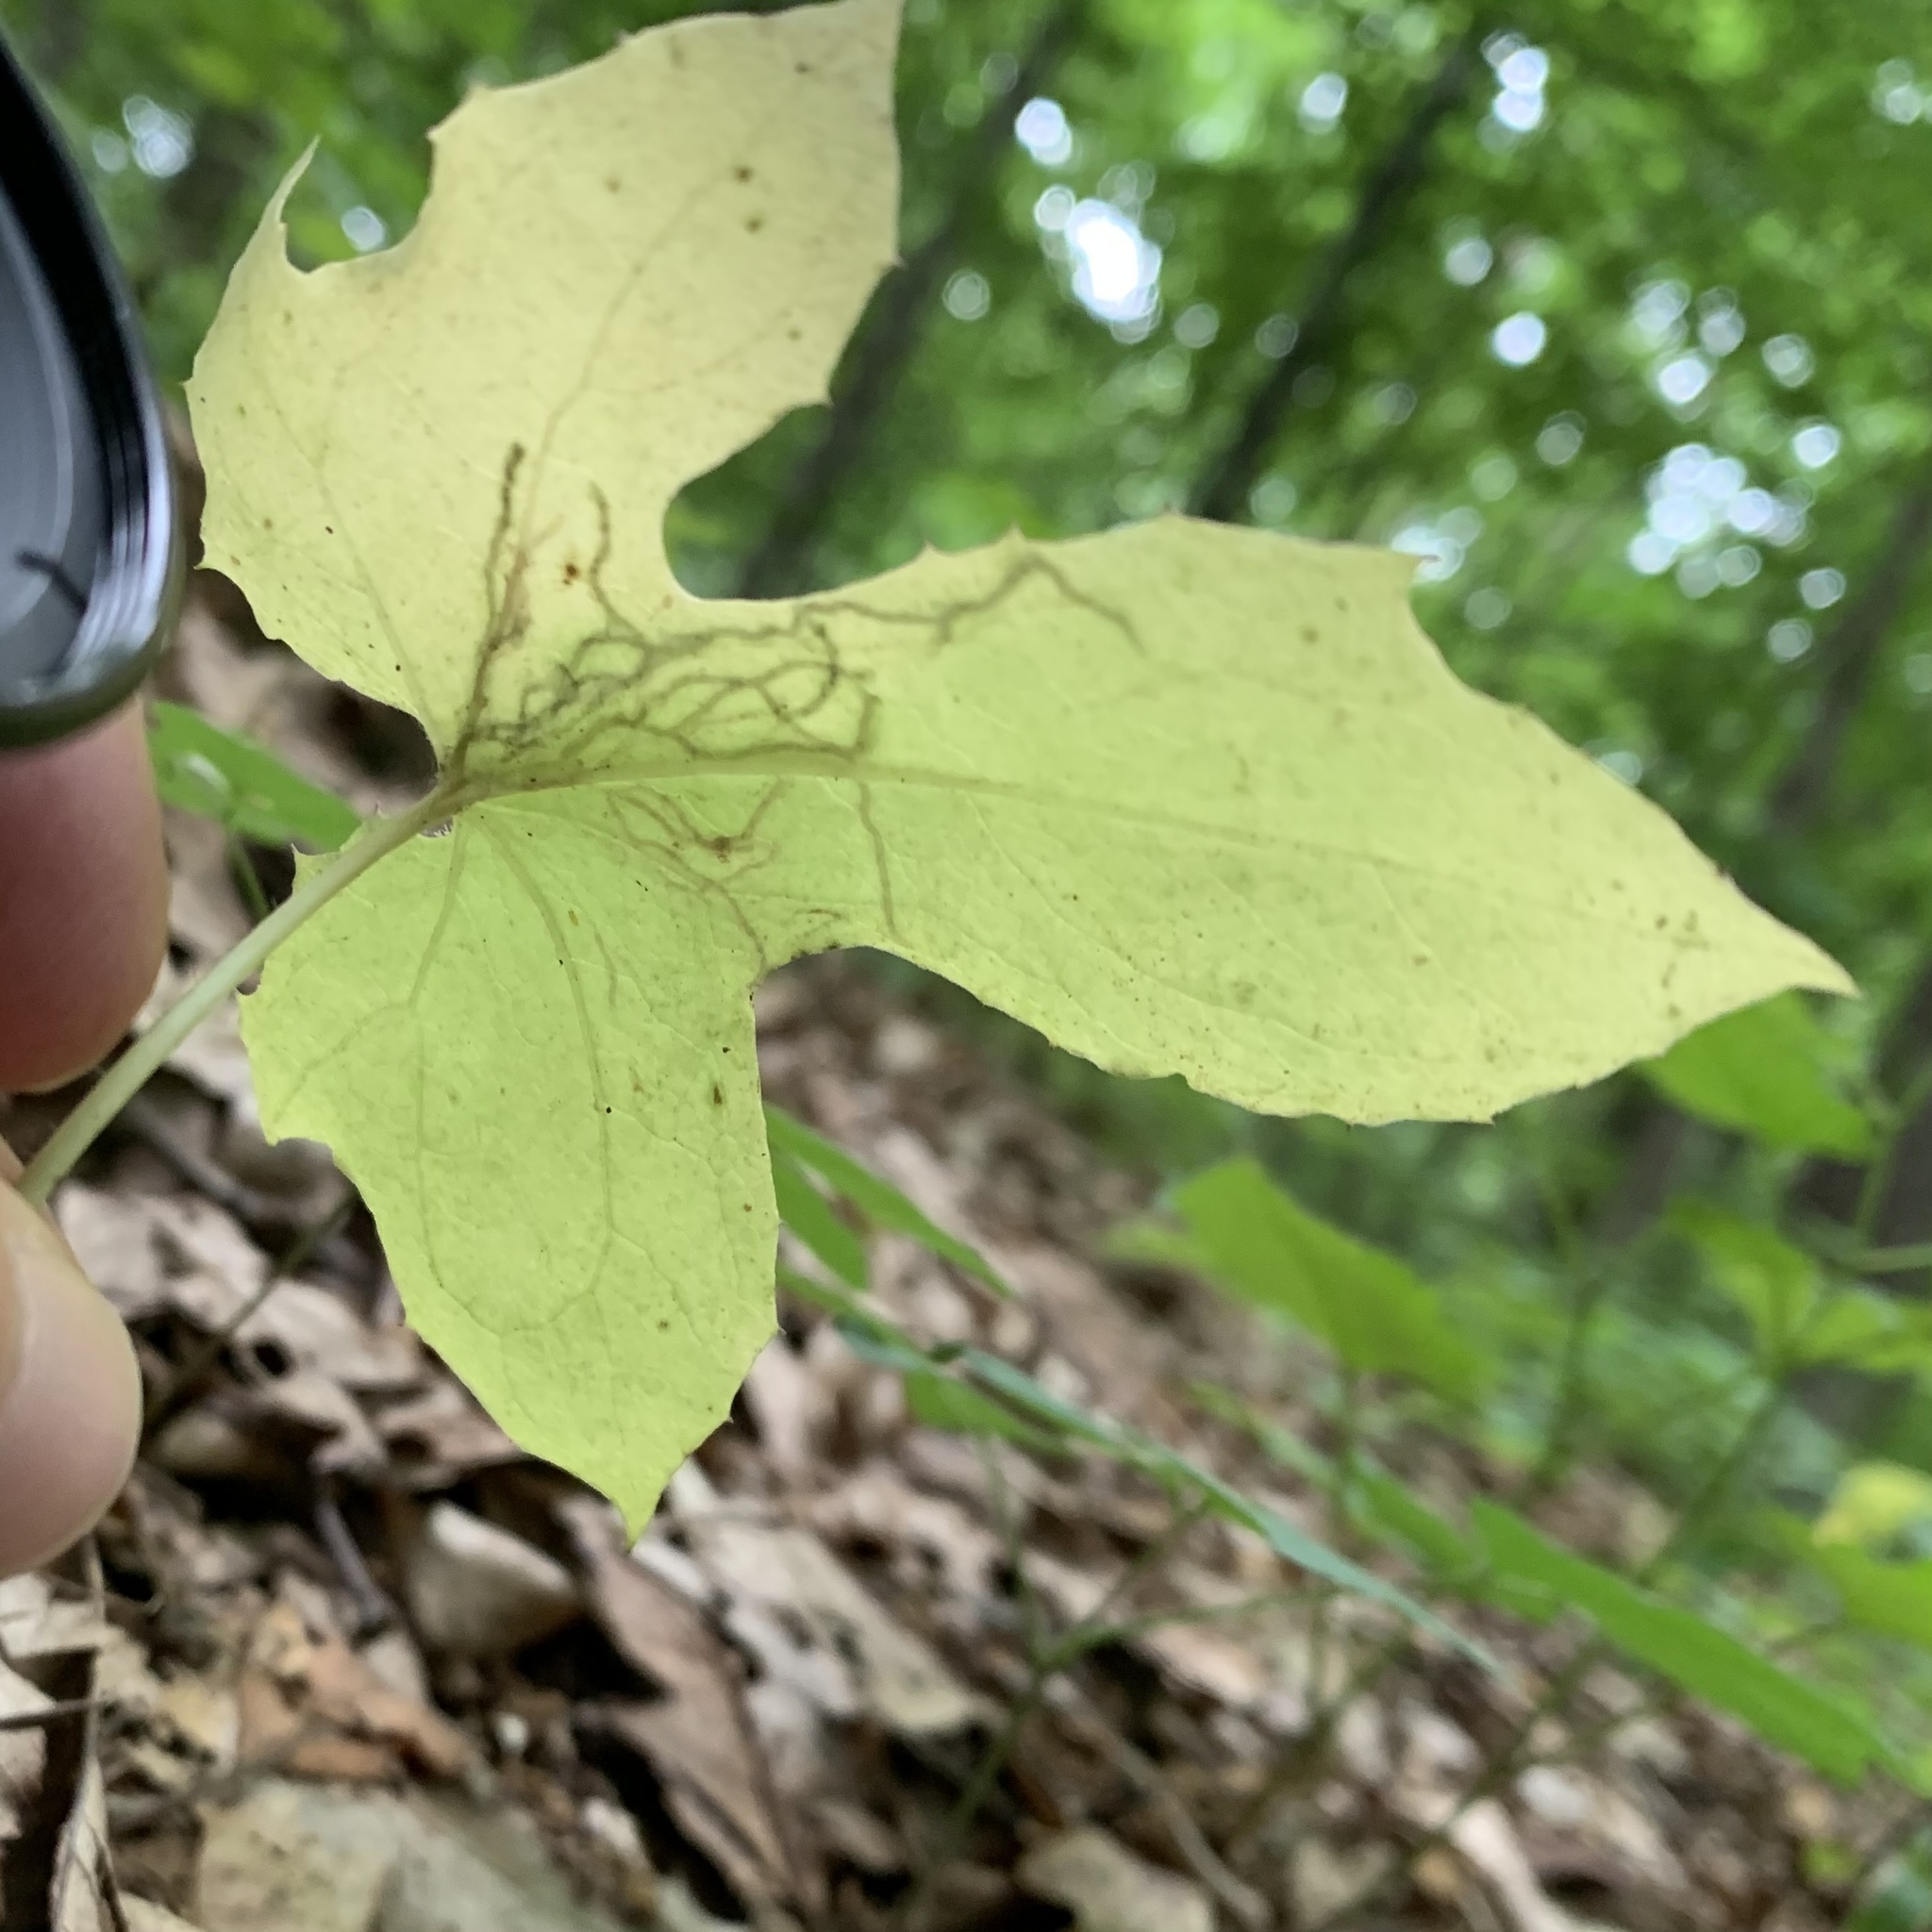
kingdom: Animalia
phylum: Arthropoda
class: Insecta
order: Diptera
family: Agromyzidae
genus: Ophiomyia
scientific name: Ophiomyia congregata
